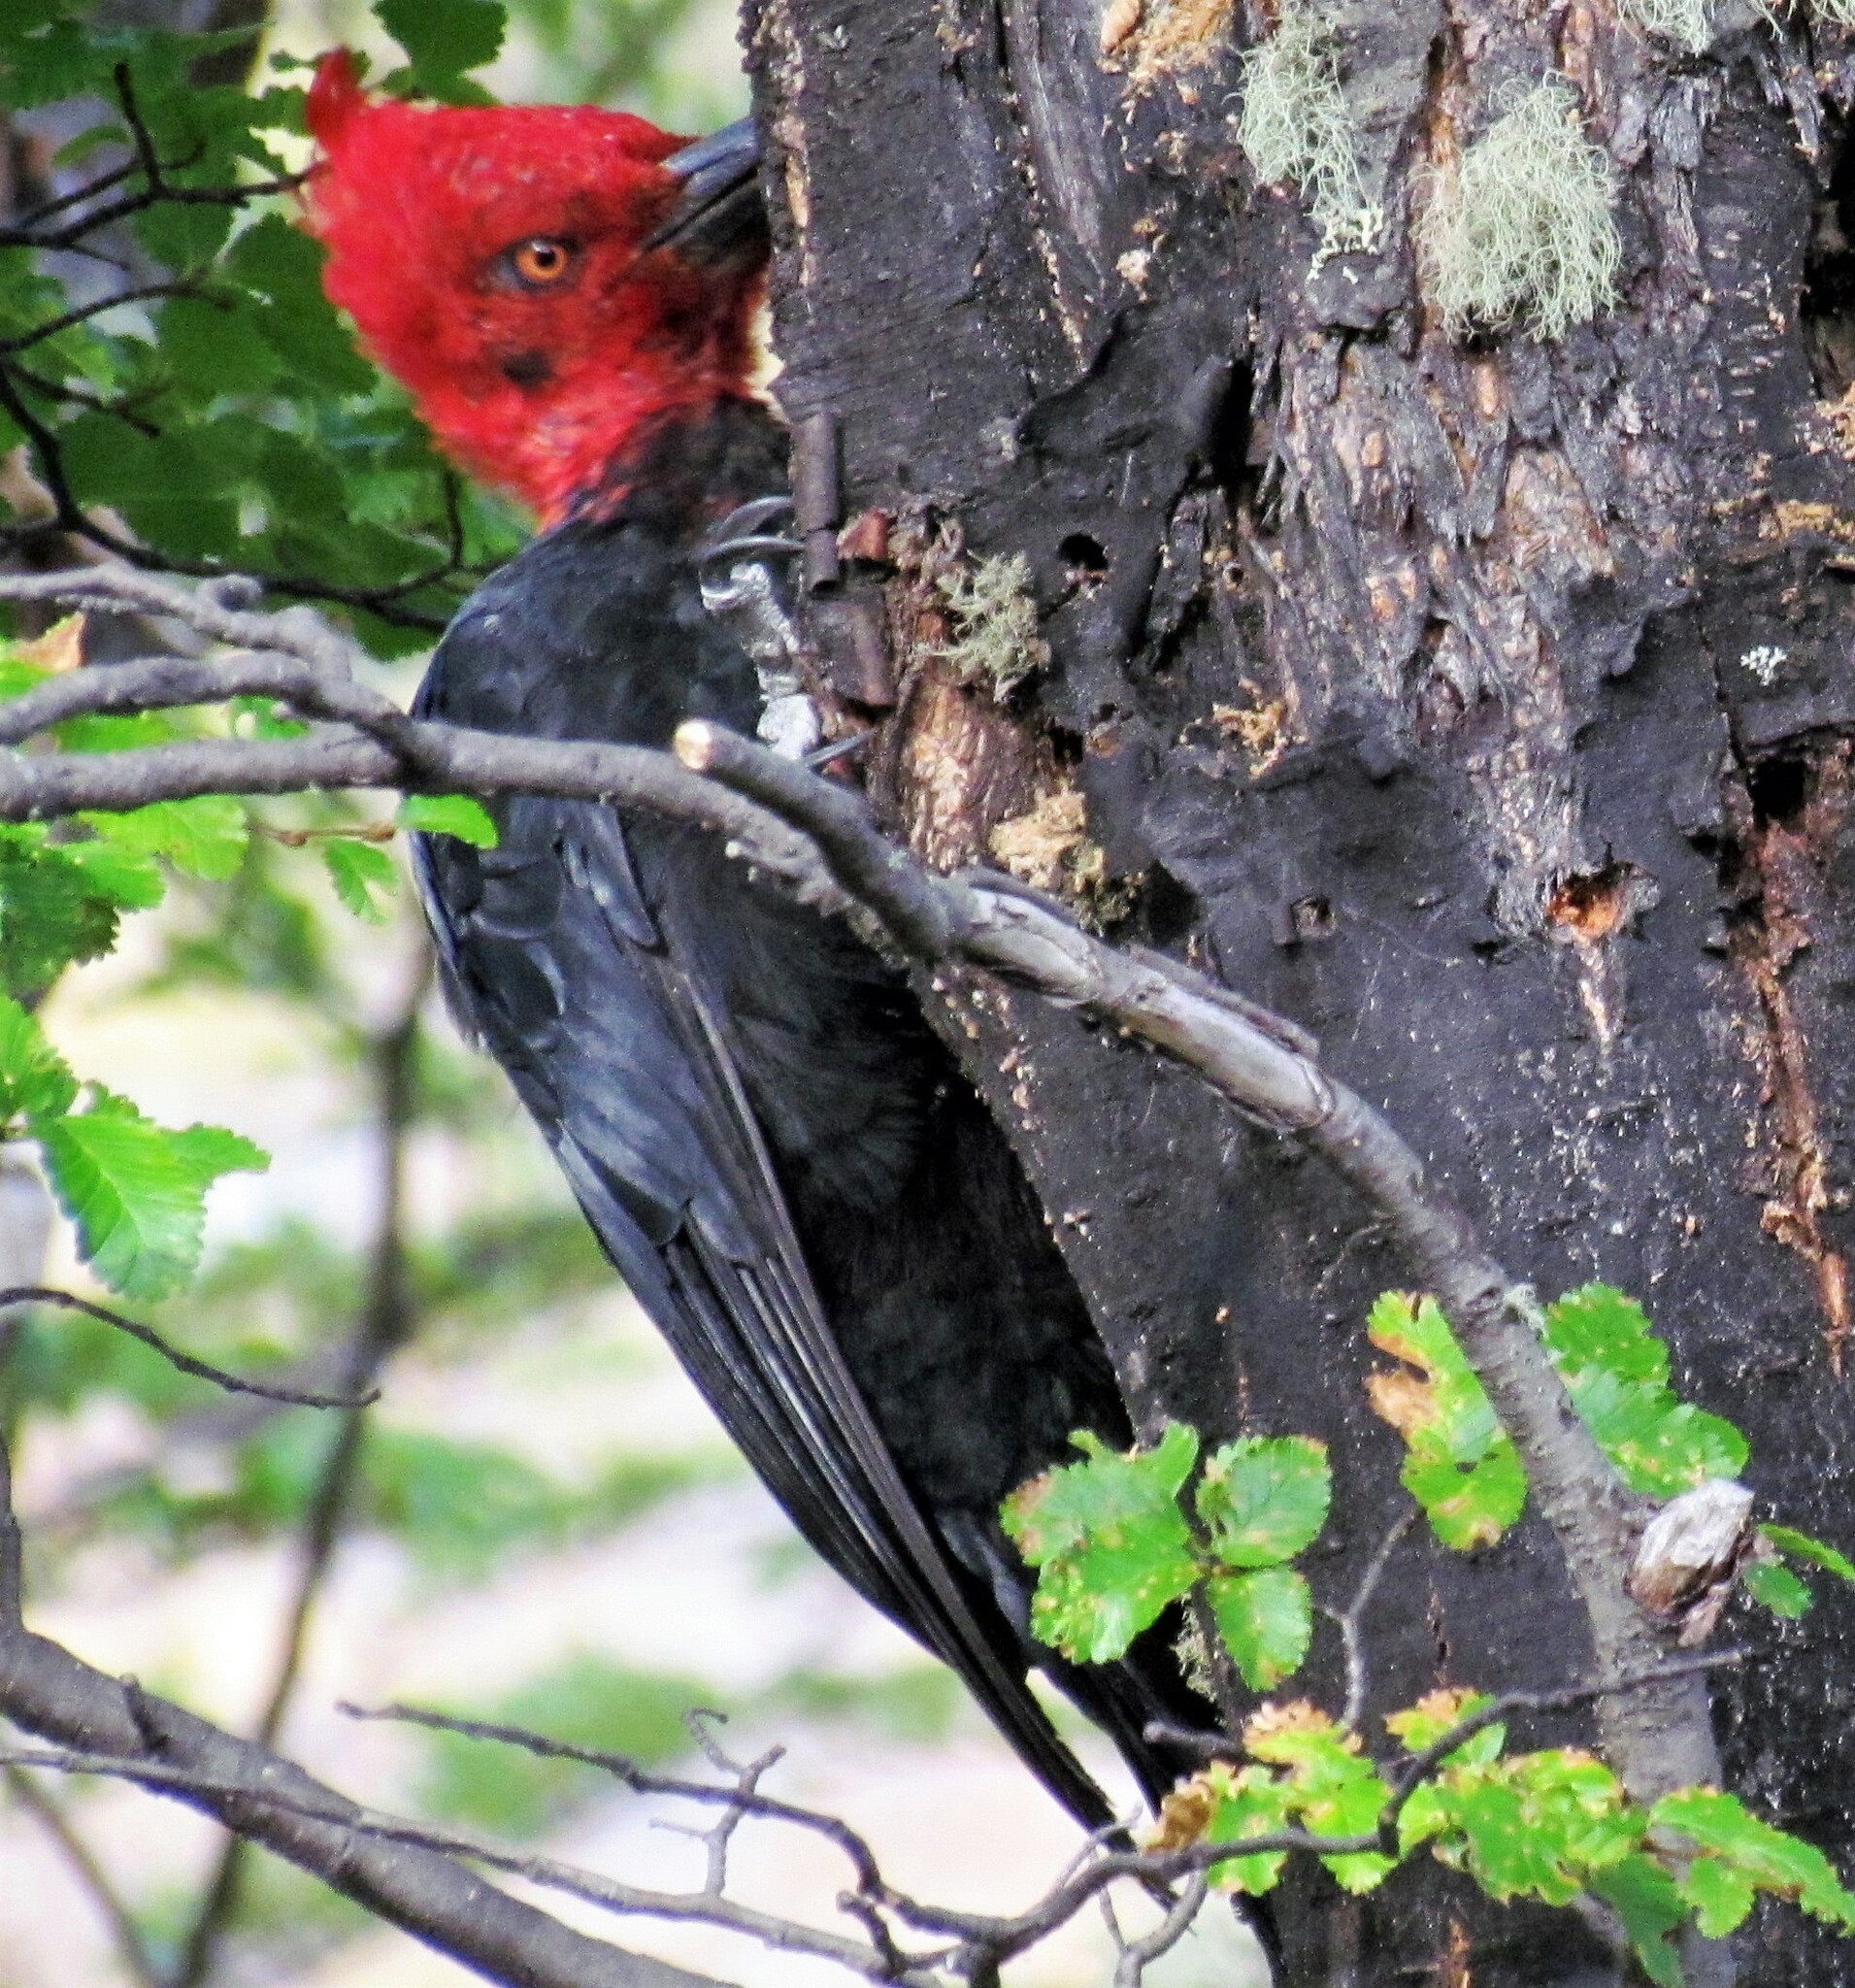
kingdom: Animalia
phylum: Chordata
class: Aves
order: Piciformes
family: Picidae
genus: Campephilus
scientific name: Campephilus magellanicus
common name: Magellanic woodpecker
